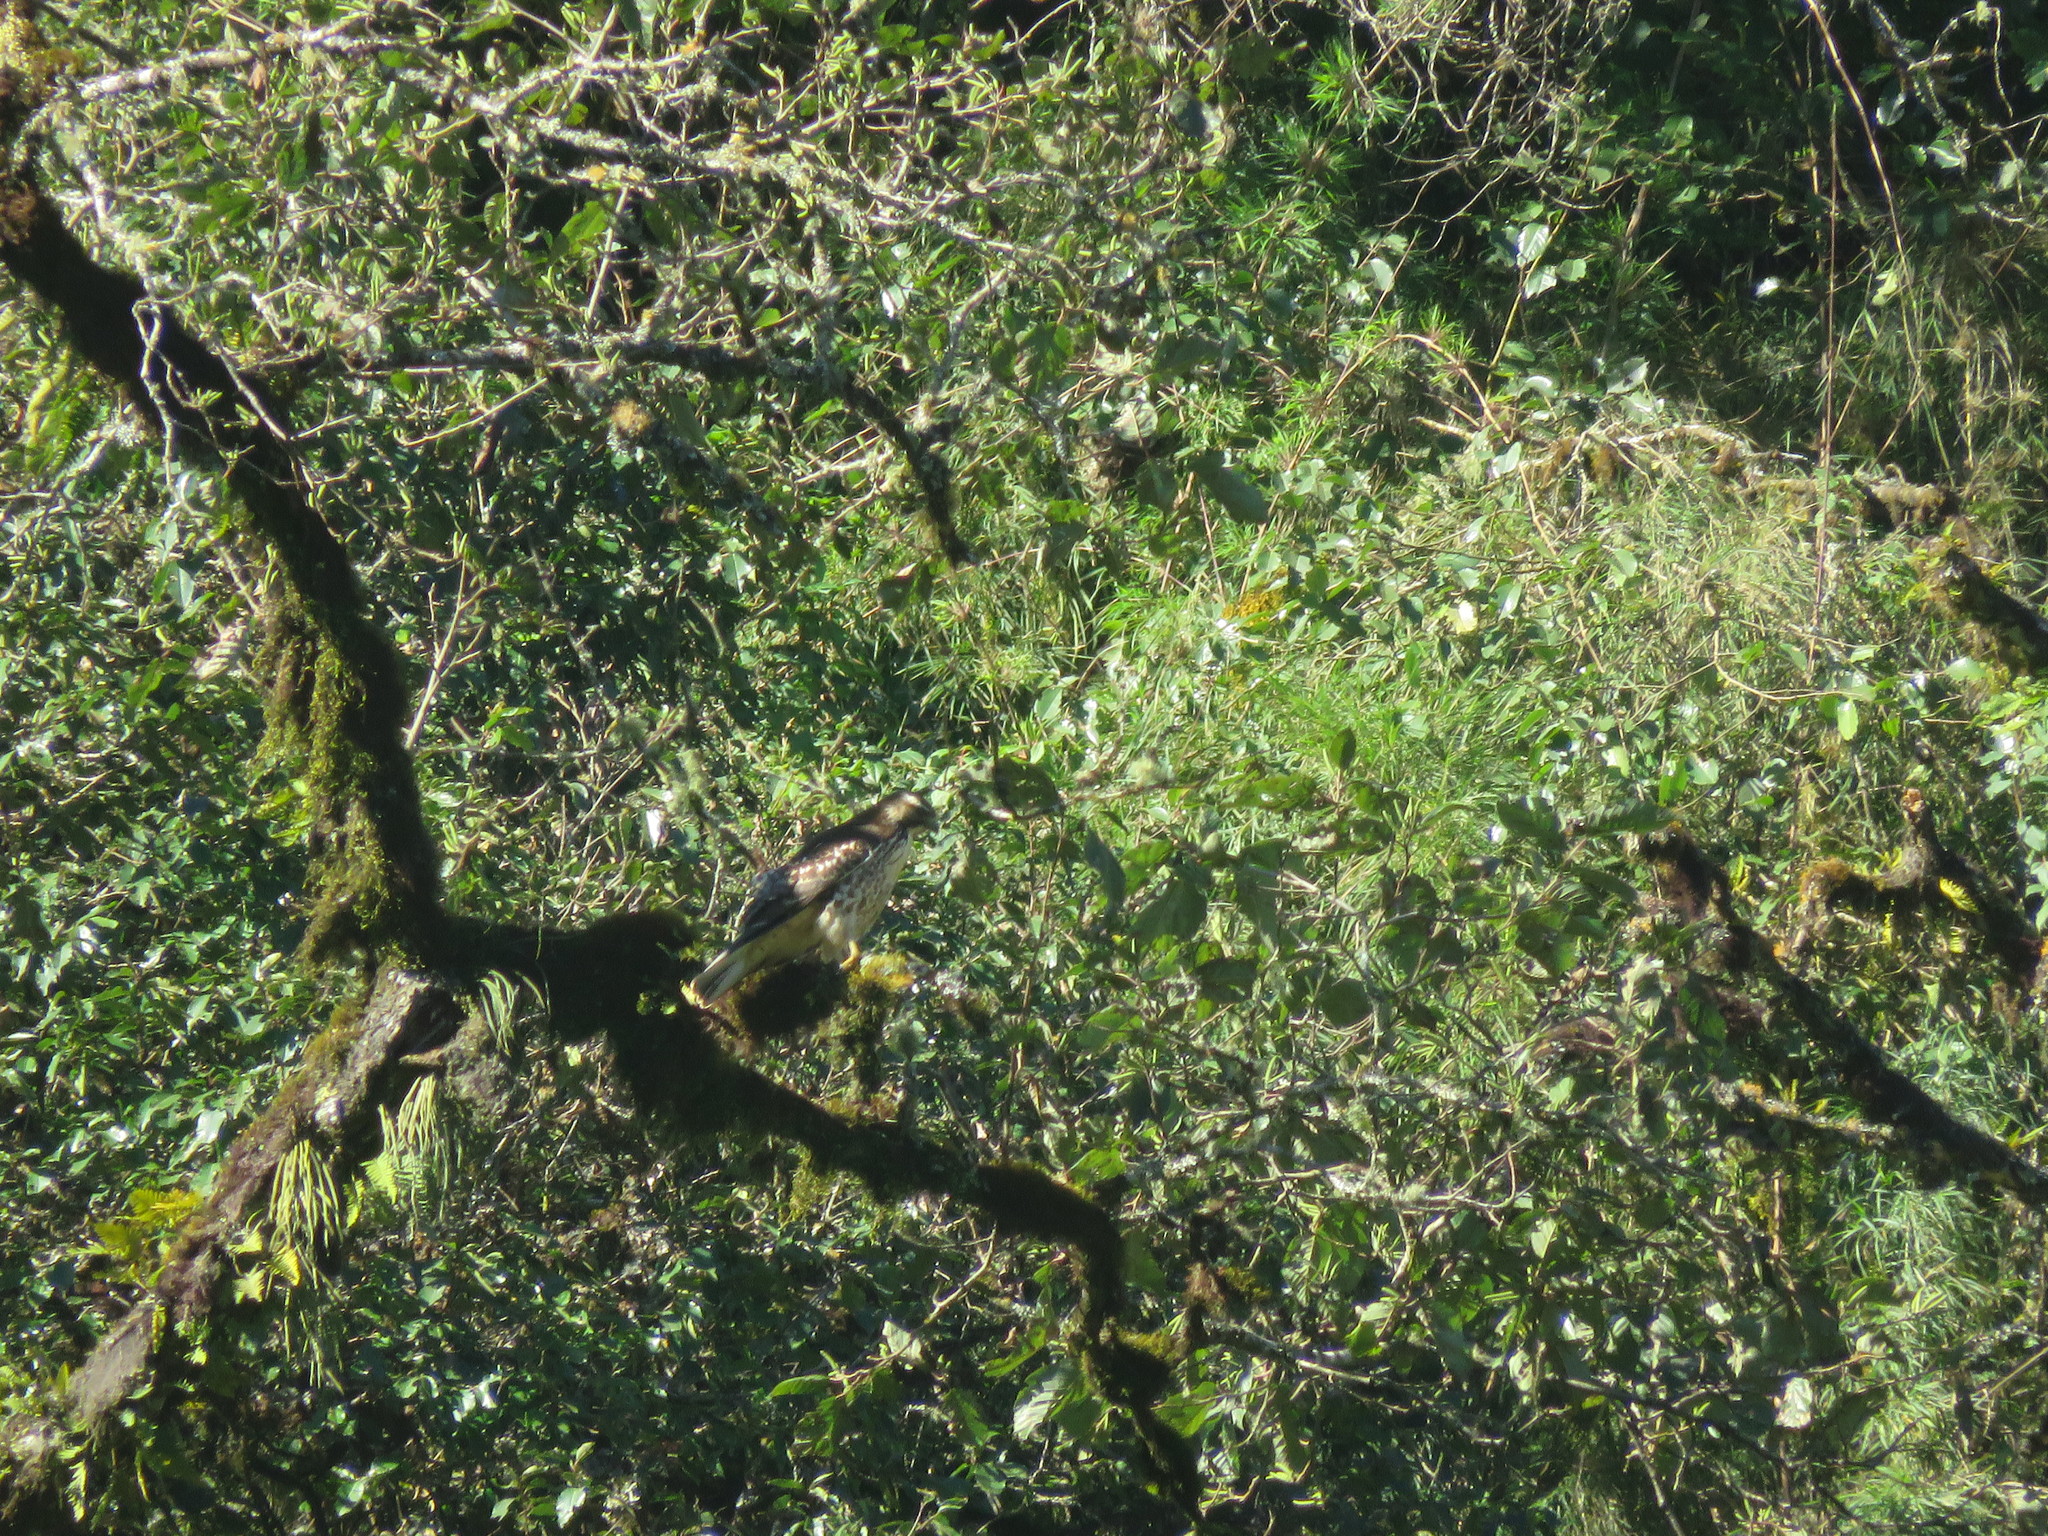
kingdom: Animalia
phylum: Chordata
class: Aves
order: Accipitriformes
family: Accipitridae
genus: Buteo
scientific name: Buteo polyosoma
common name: Variable hawk
